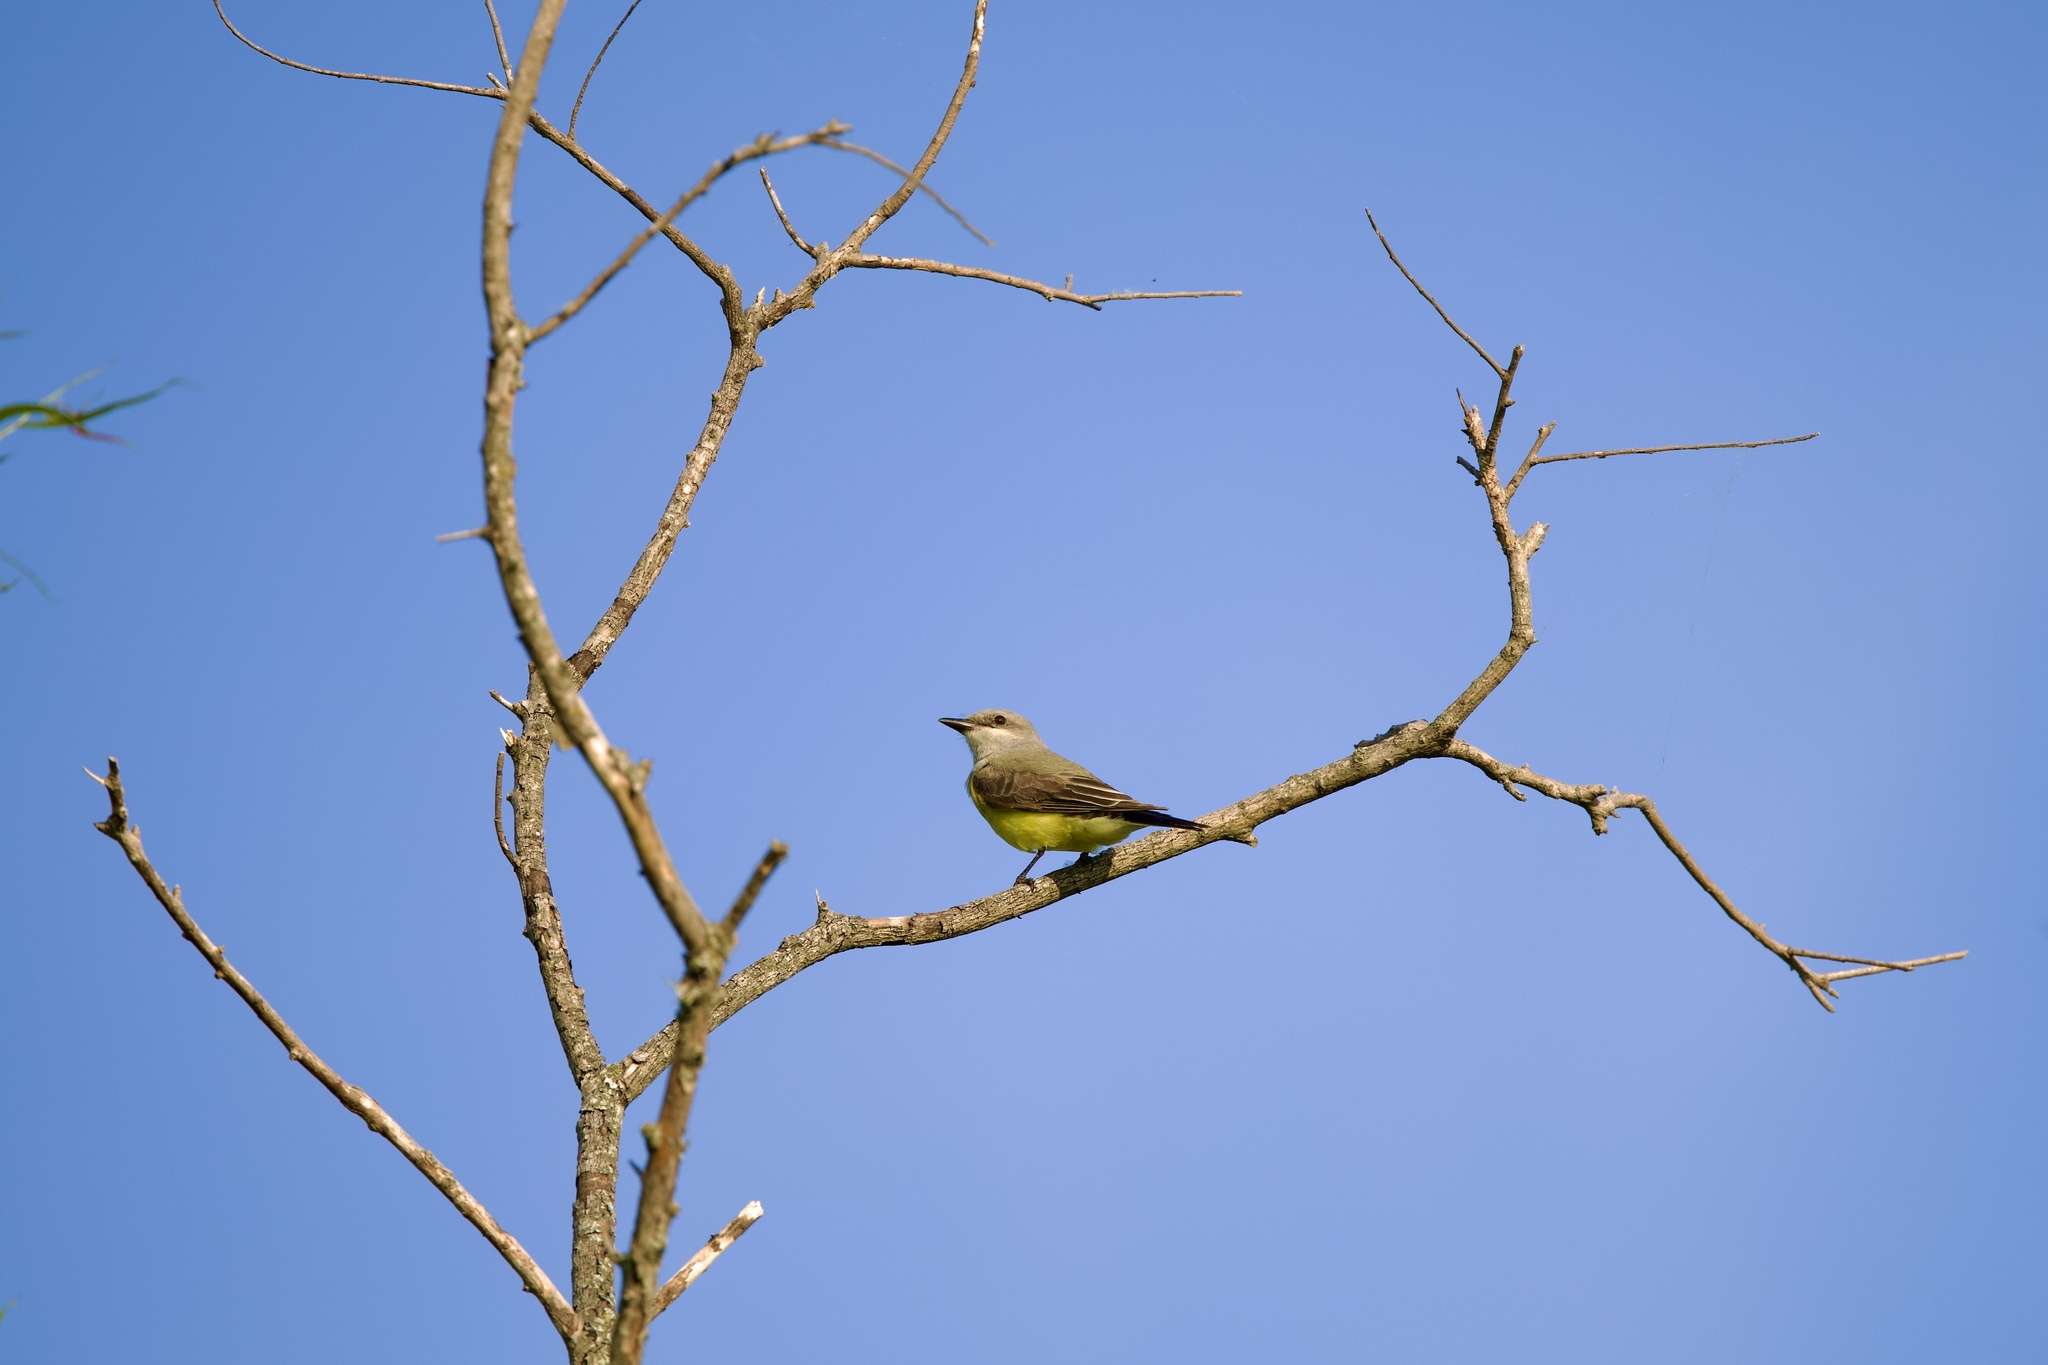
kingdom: Animalia
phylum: Chordata
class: Aves
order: Passeriformes
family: Tyrannidae
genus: Tyrannus
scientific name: Tyrannus verticalis
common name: Western kingbird
